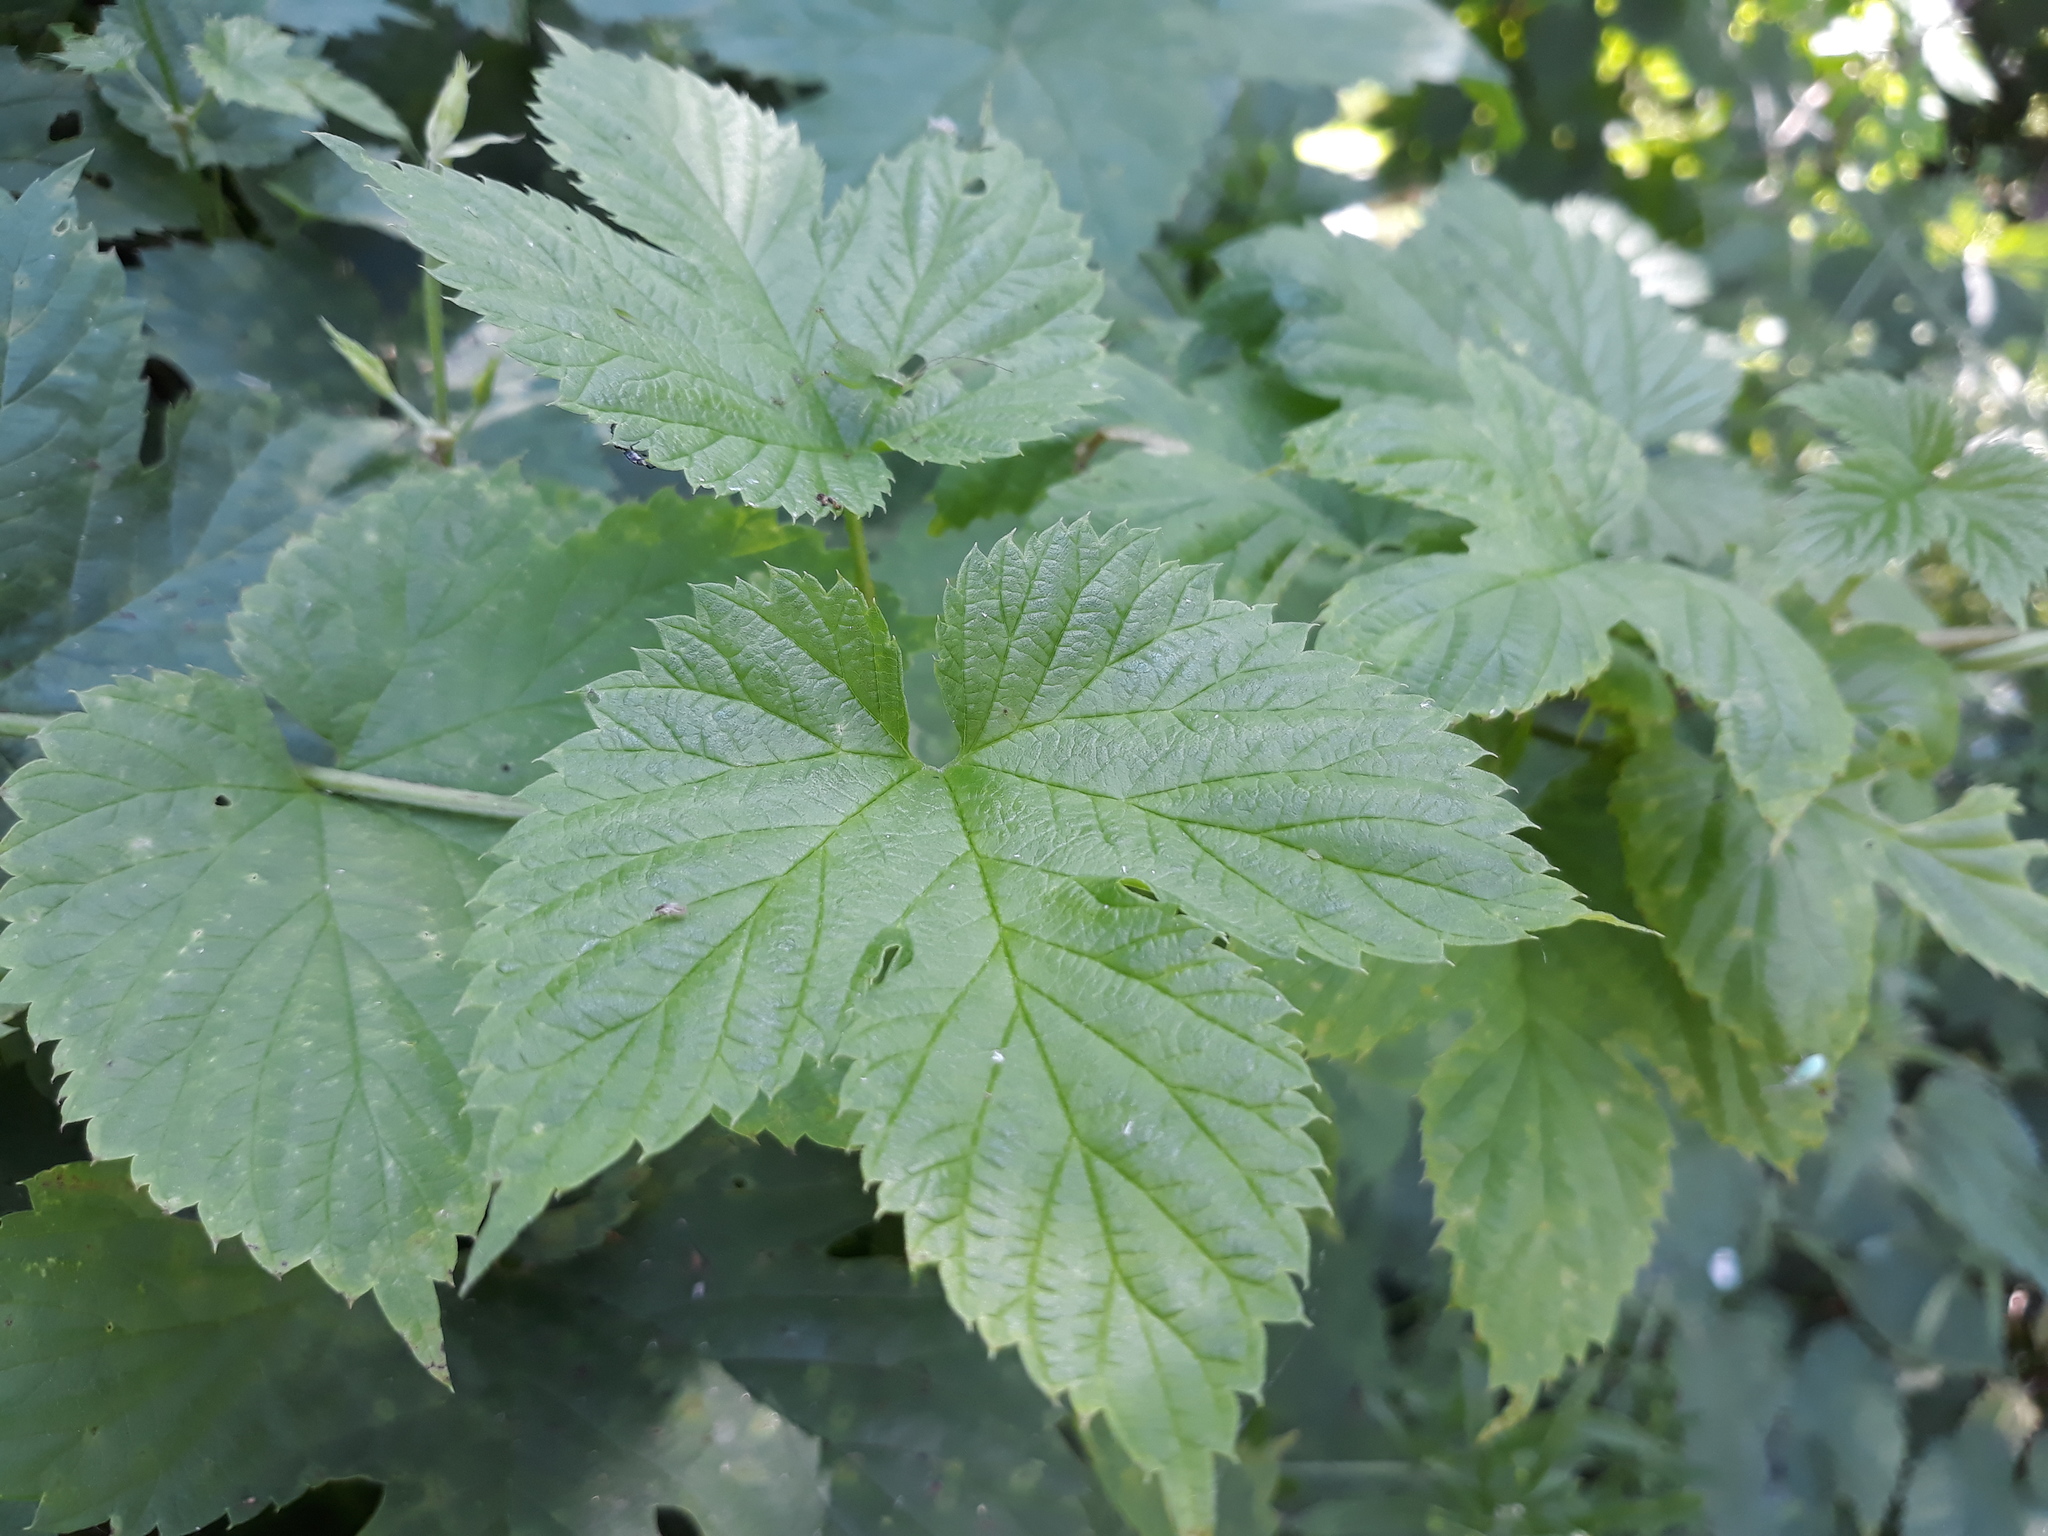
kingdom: Plantae
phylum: Tracheophyta
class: Magnoliopsida
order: Rosales
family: Cannabaceae
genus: Humulus
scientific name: Humulus lupulus
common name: Hop
